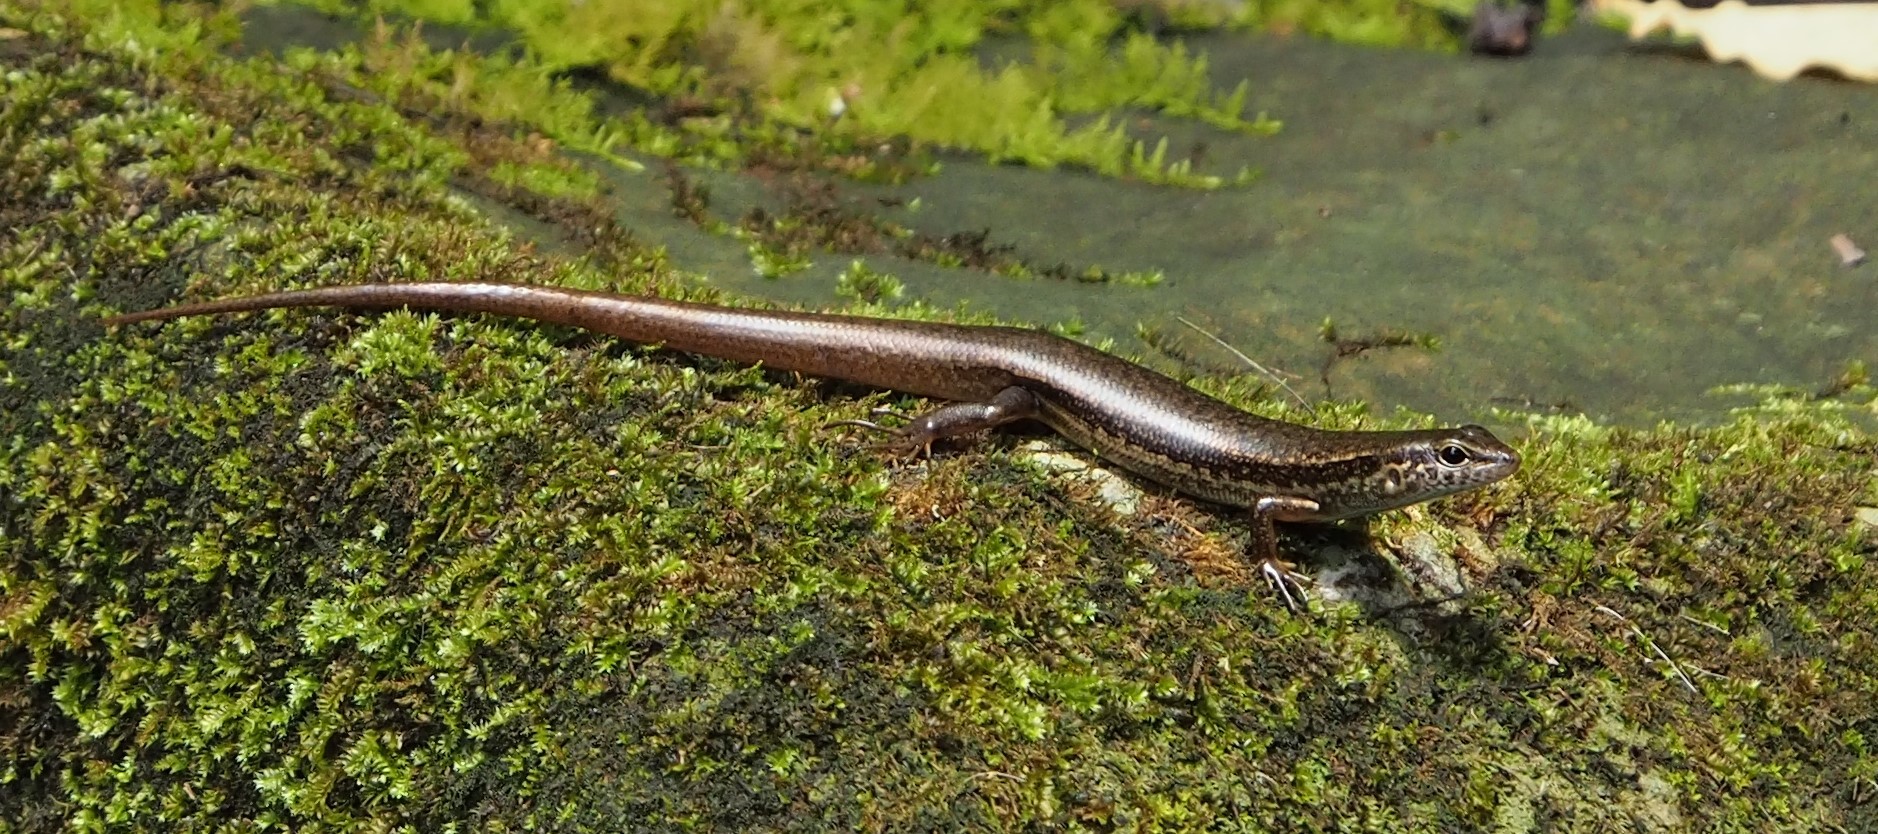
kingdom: Animalia
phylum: Chordata
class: Squamata
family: Scincidae
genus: Sphenomorphus
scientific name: Sphenomorphus indicus
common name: Himalayan forest skink
